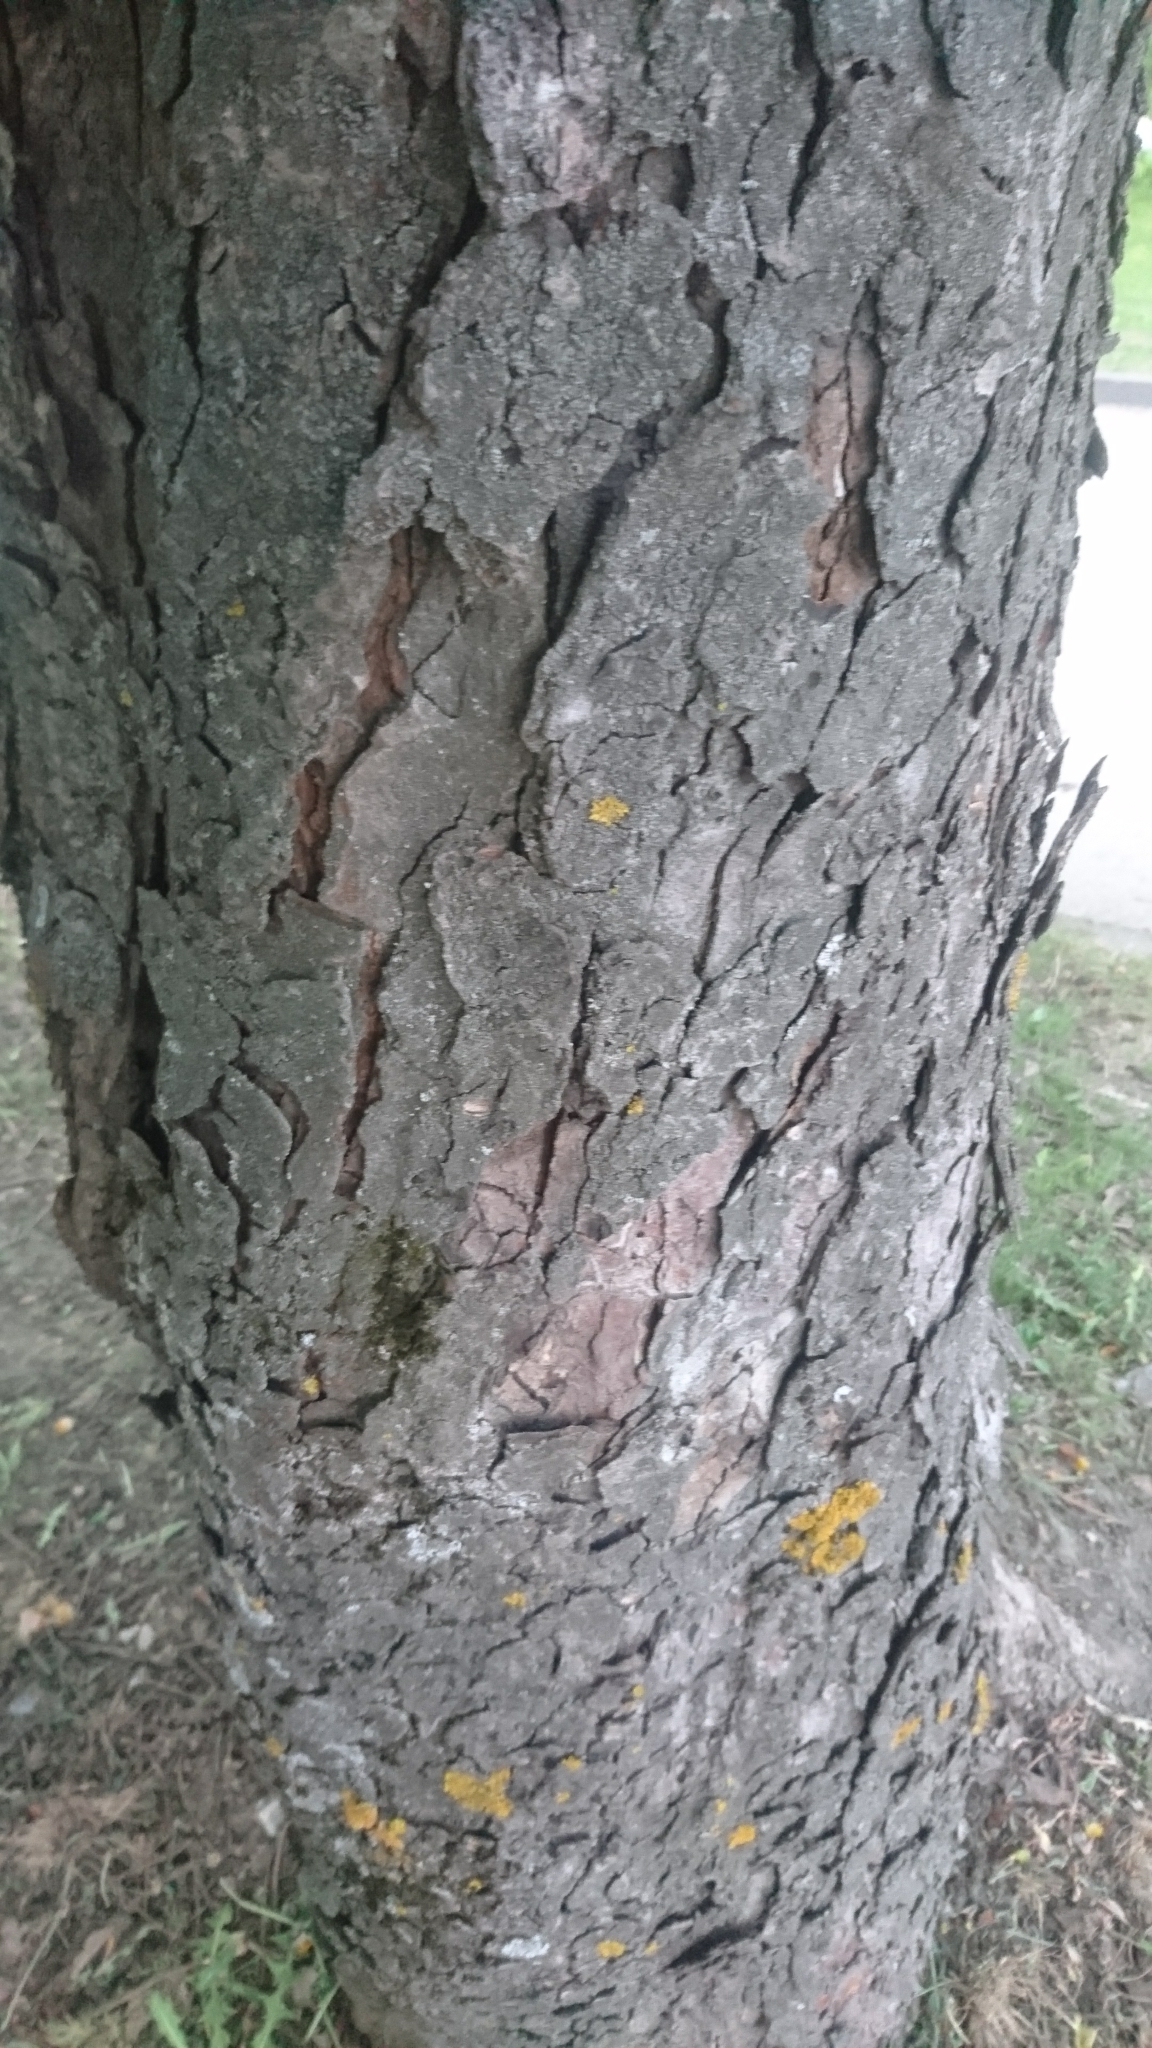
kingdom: Plantae
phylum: Tracheophyta
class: Magnoliopsida
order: Sapindales
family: Sapindaceae
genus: Aesculus
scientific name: Aesculus hippocastanum
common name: Horse-chestnut
